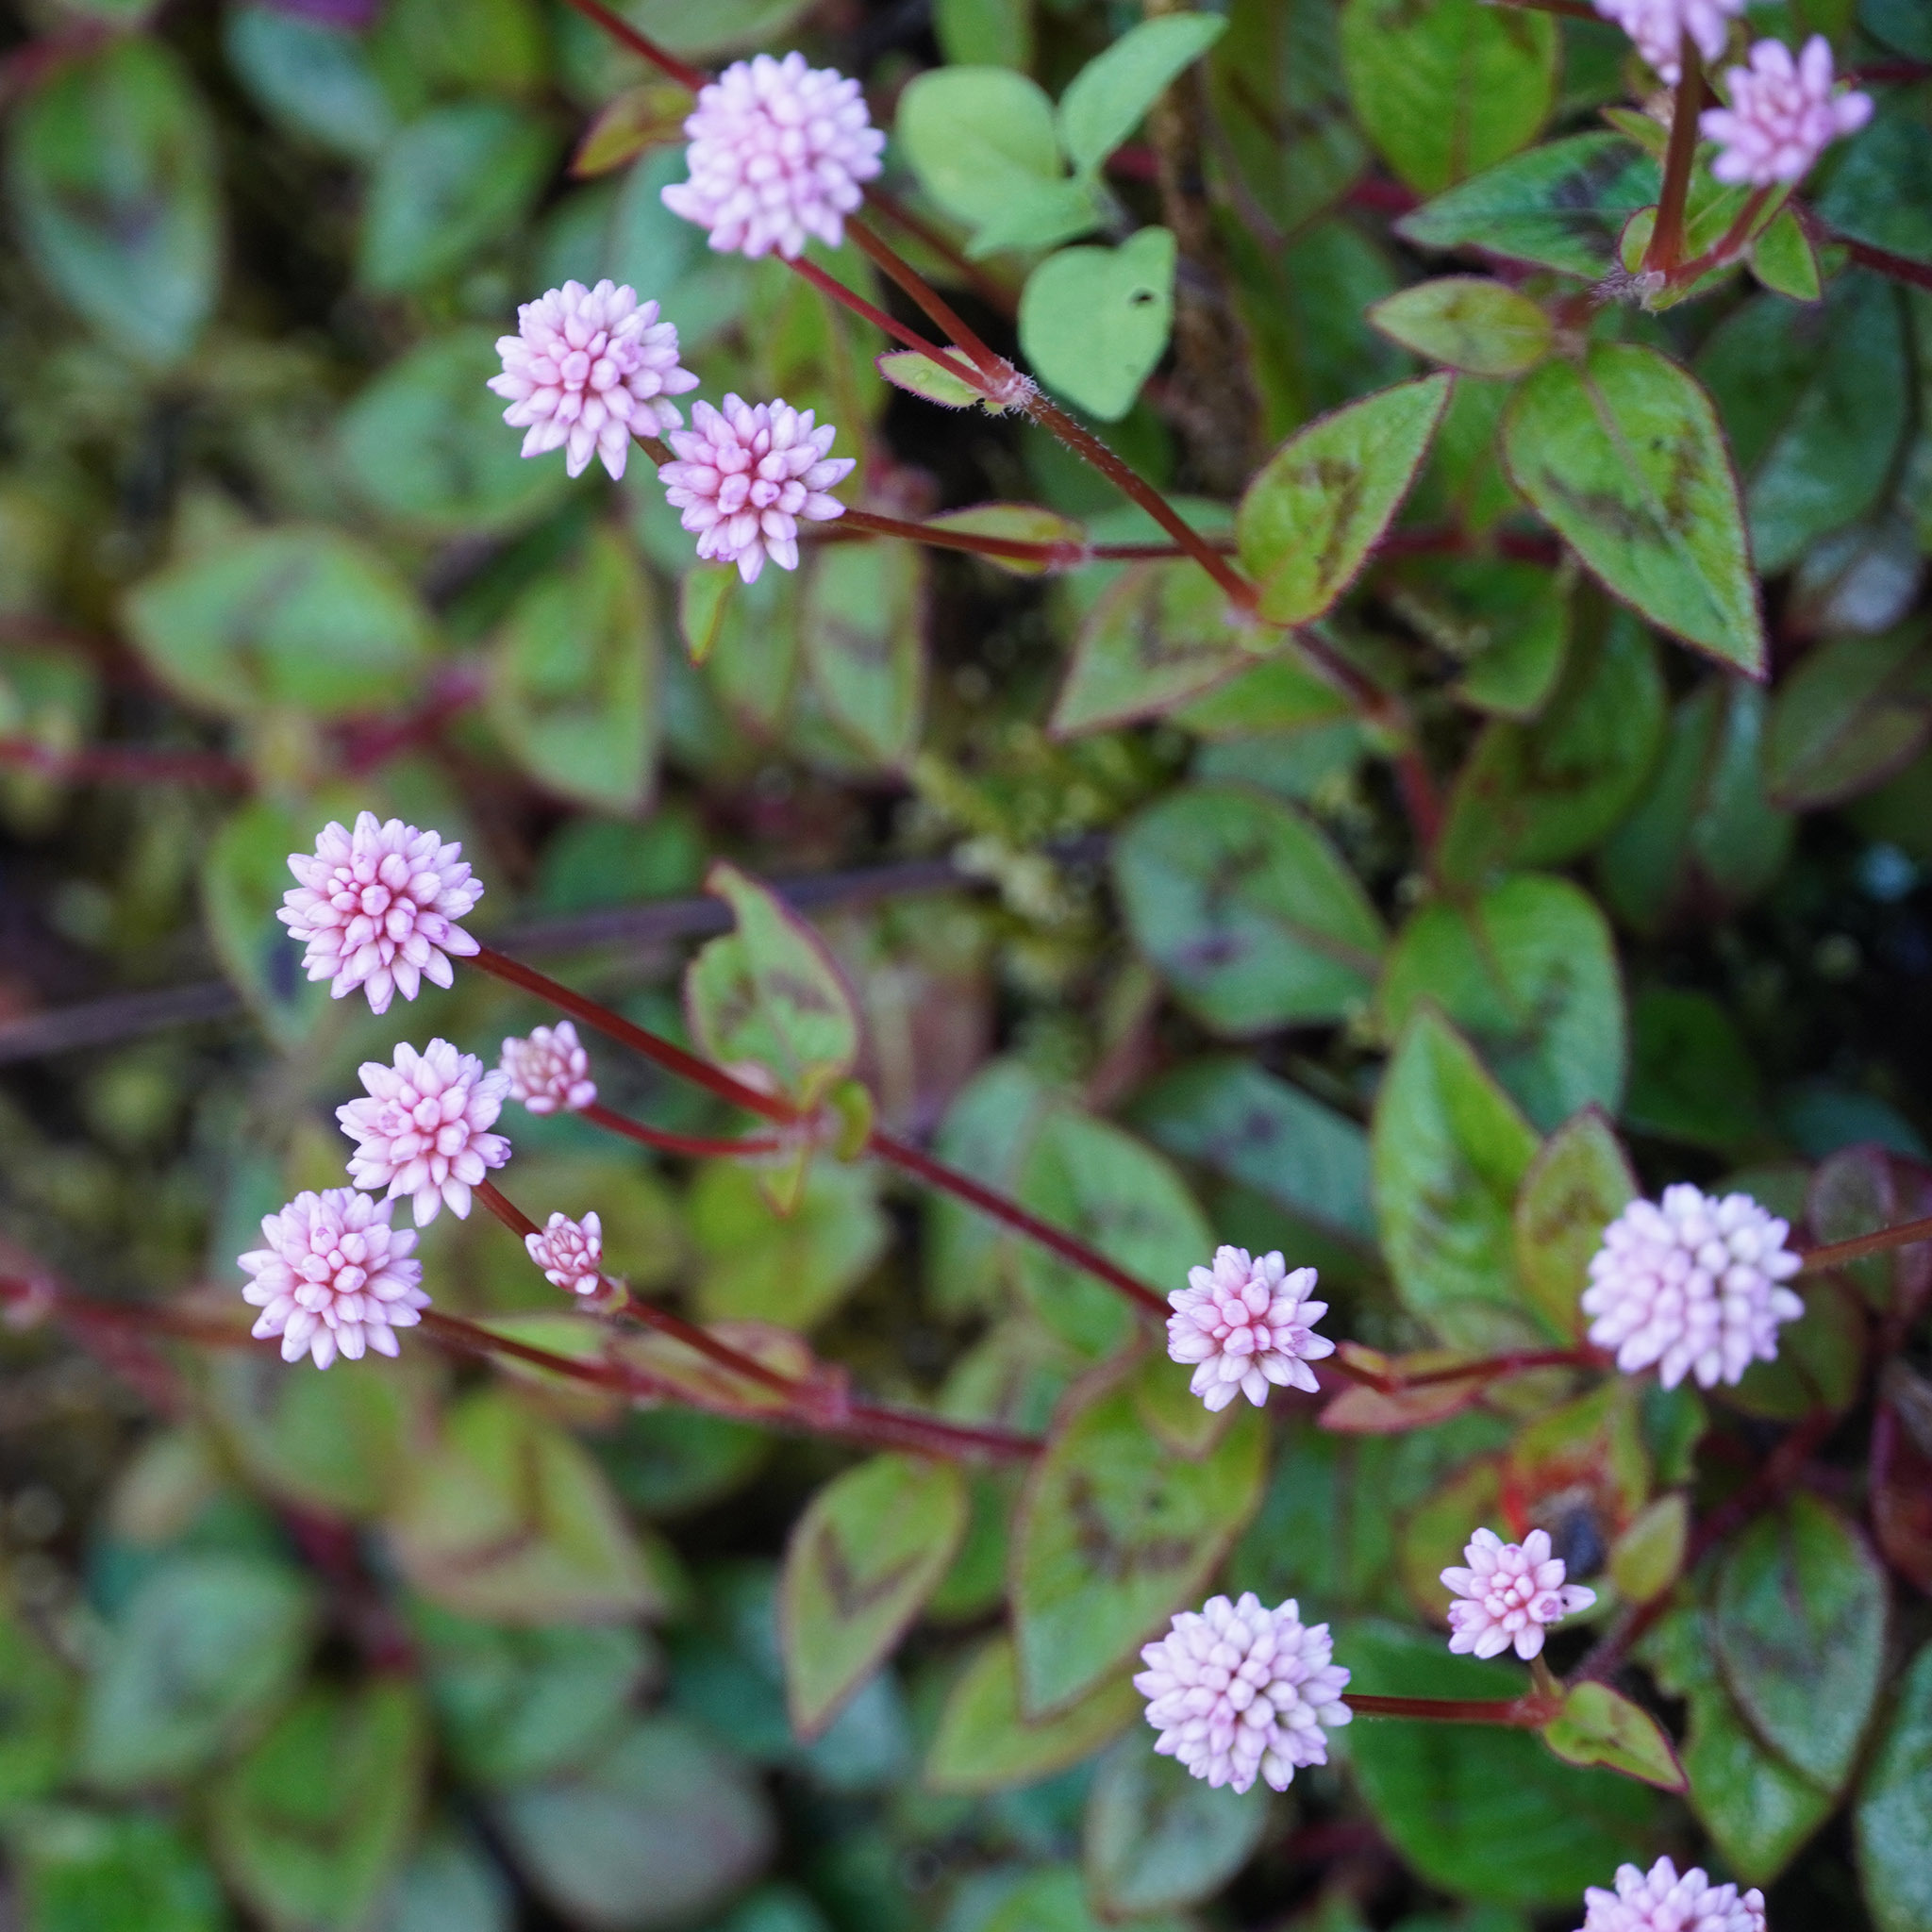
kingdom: Plantae
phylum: Tracheophyta
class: Magnoliopsida
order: Caryophyllales
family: Polygonaceae
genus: Persicaria
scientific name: Persicaria capitata
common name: Pinkhead smartweed
